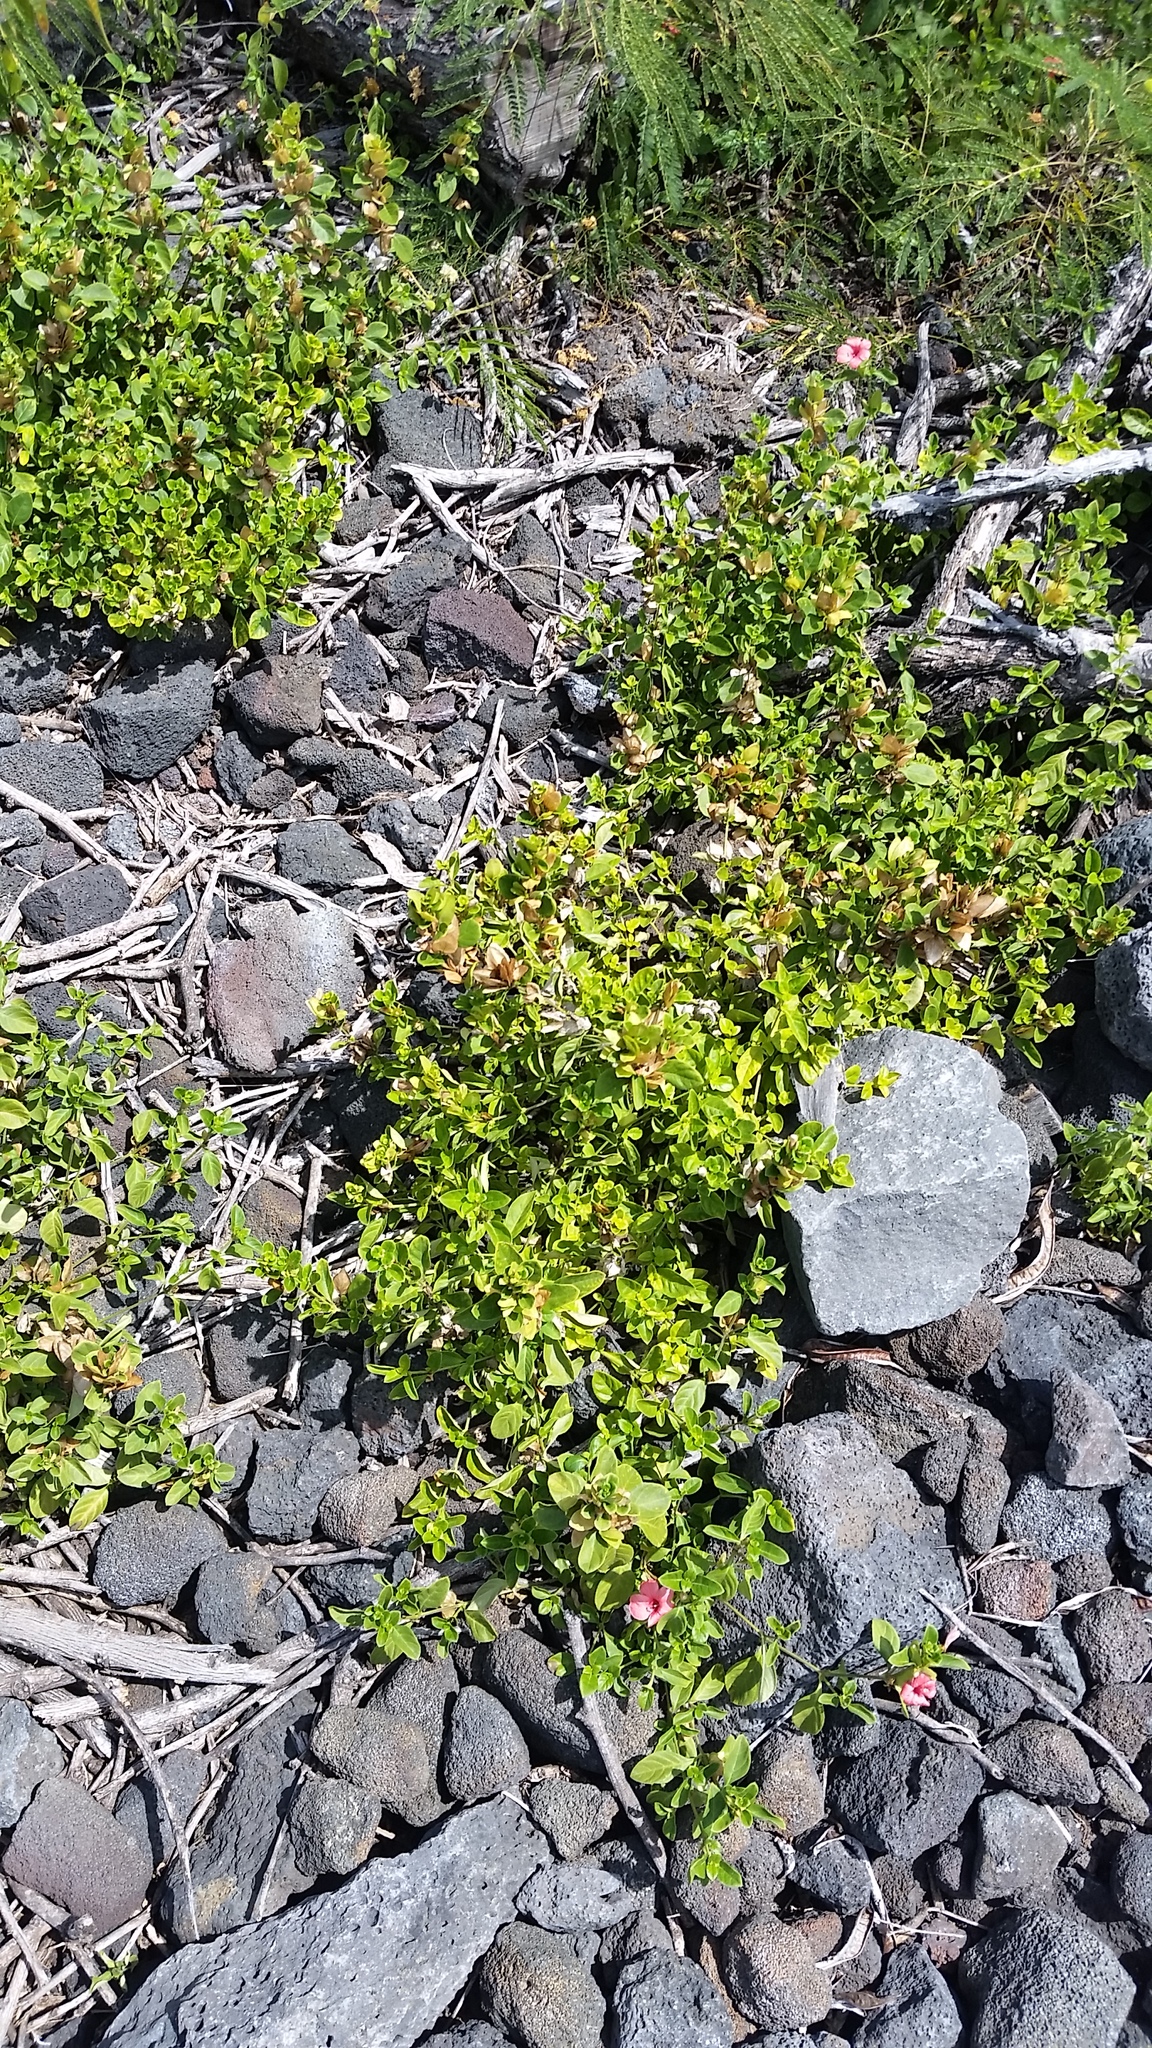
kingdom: Plantae
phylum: Tracheophyta
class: Magnoliopsida
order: Lamiales
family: Acanthaceae
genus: Barleria
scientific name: Barleria repens
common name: Pink-ruellia
